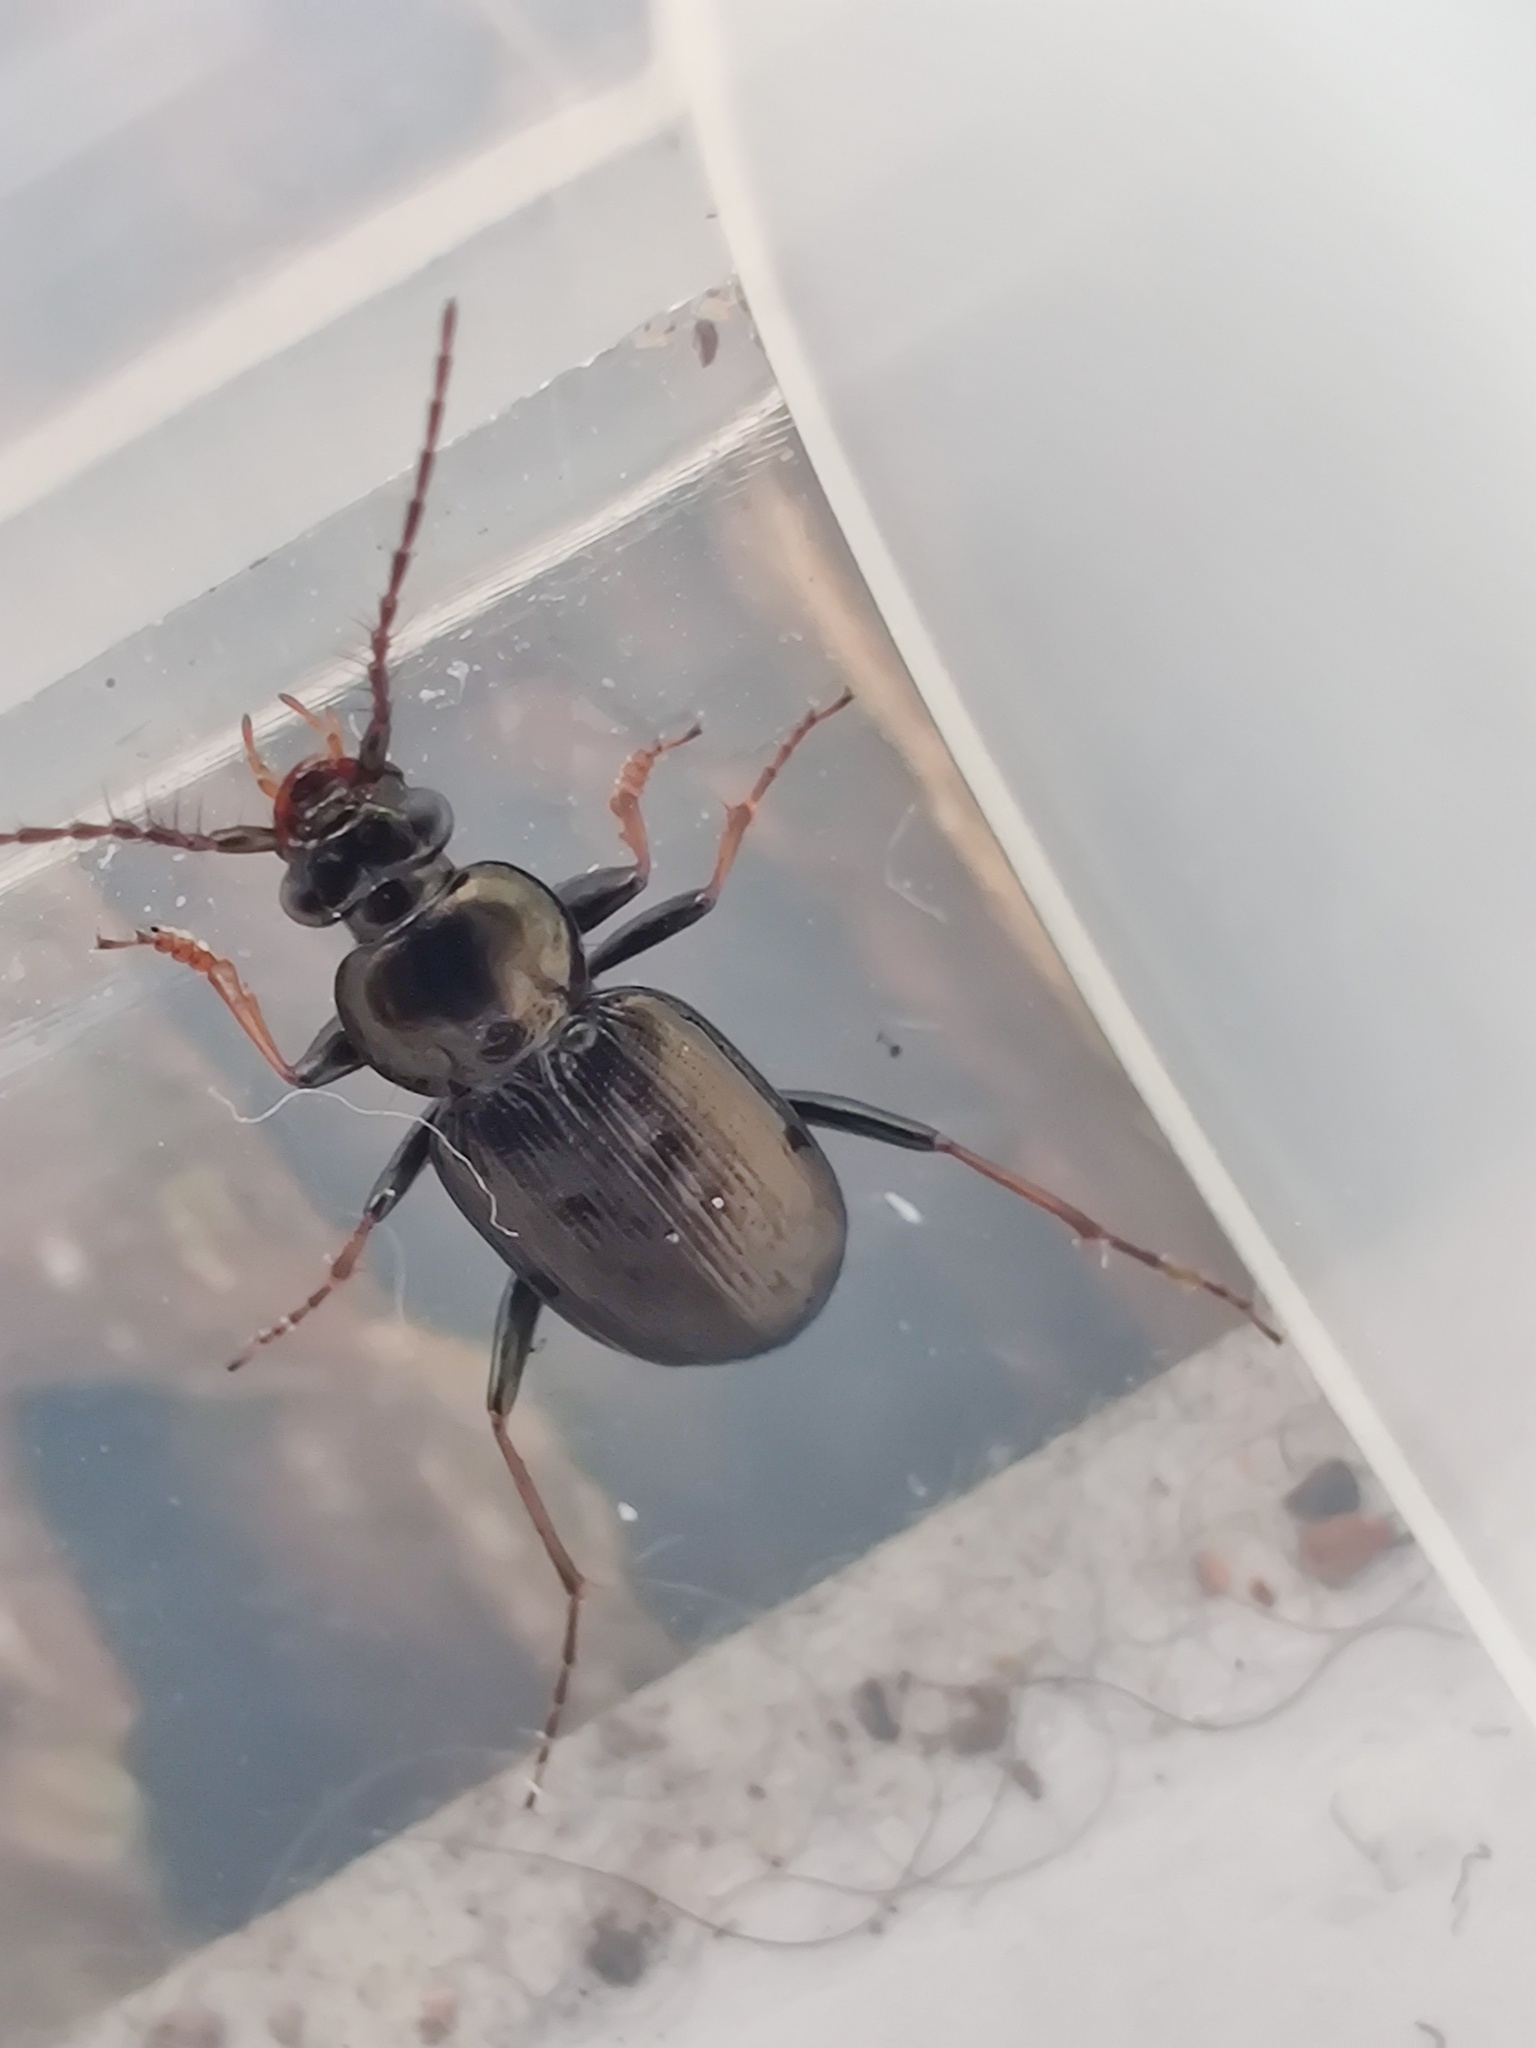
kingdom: Animalia
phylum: Arthropoda
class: Insecta
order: Coleoptera
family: Carabidae
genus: Loricera
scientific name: Loricera pilicornis
